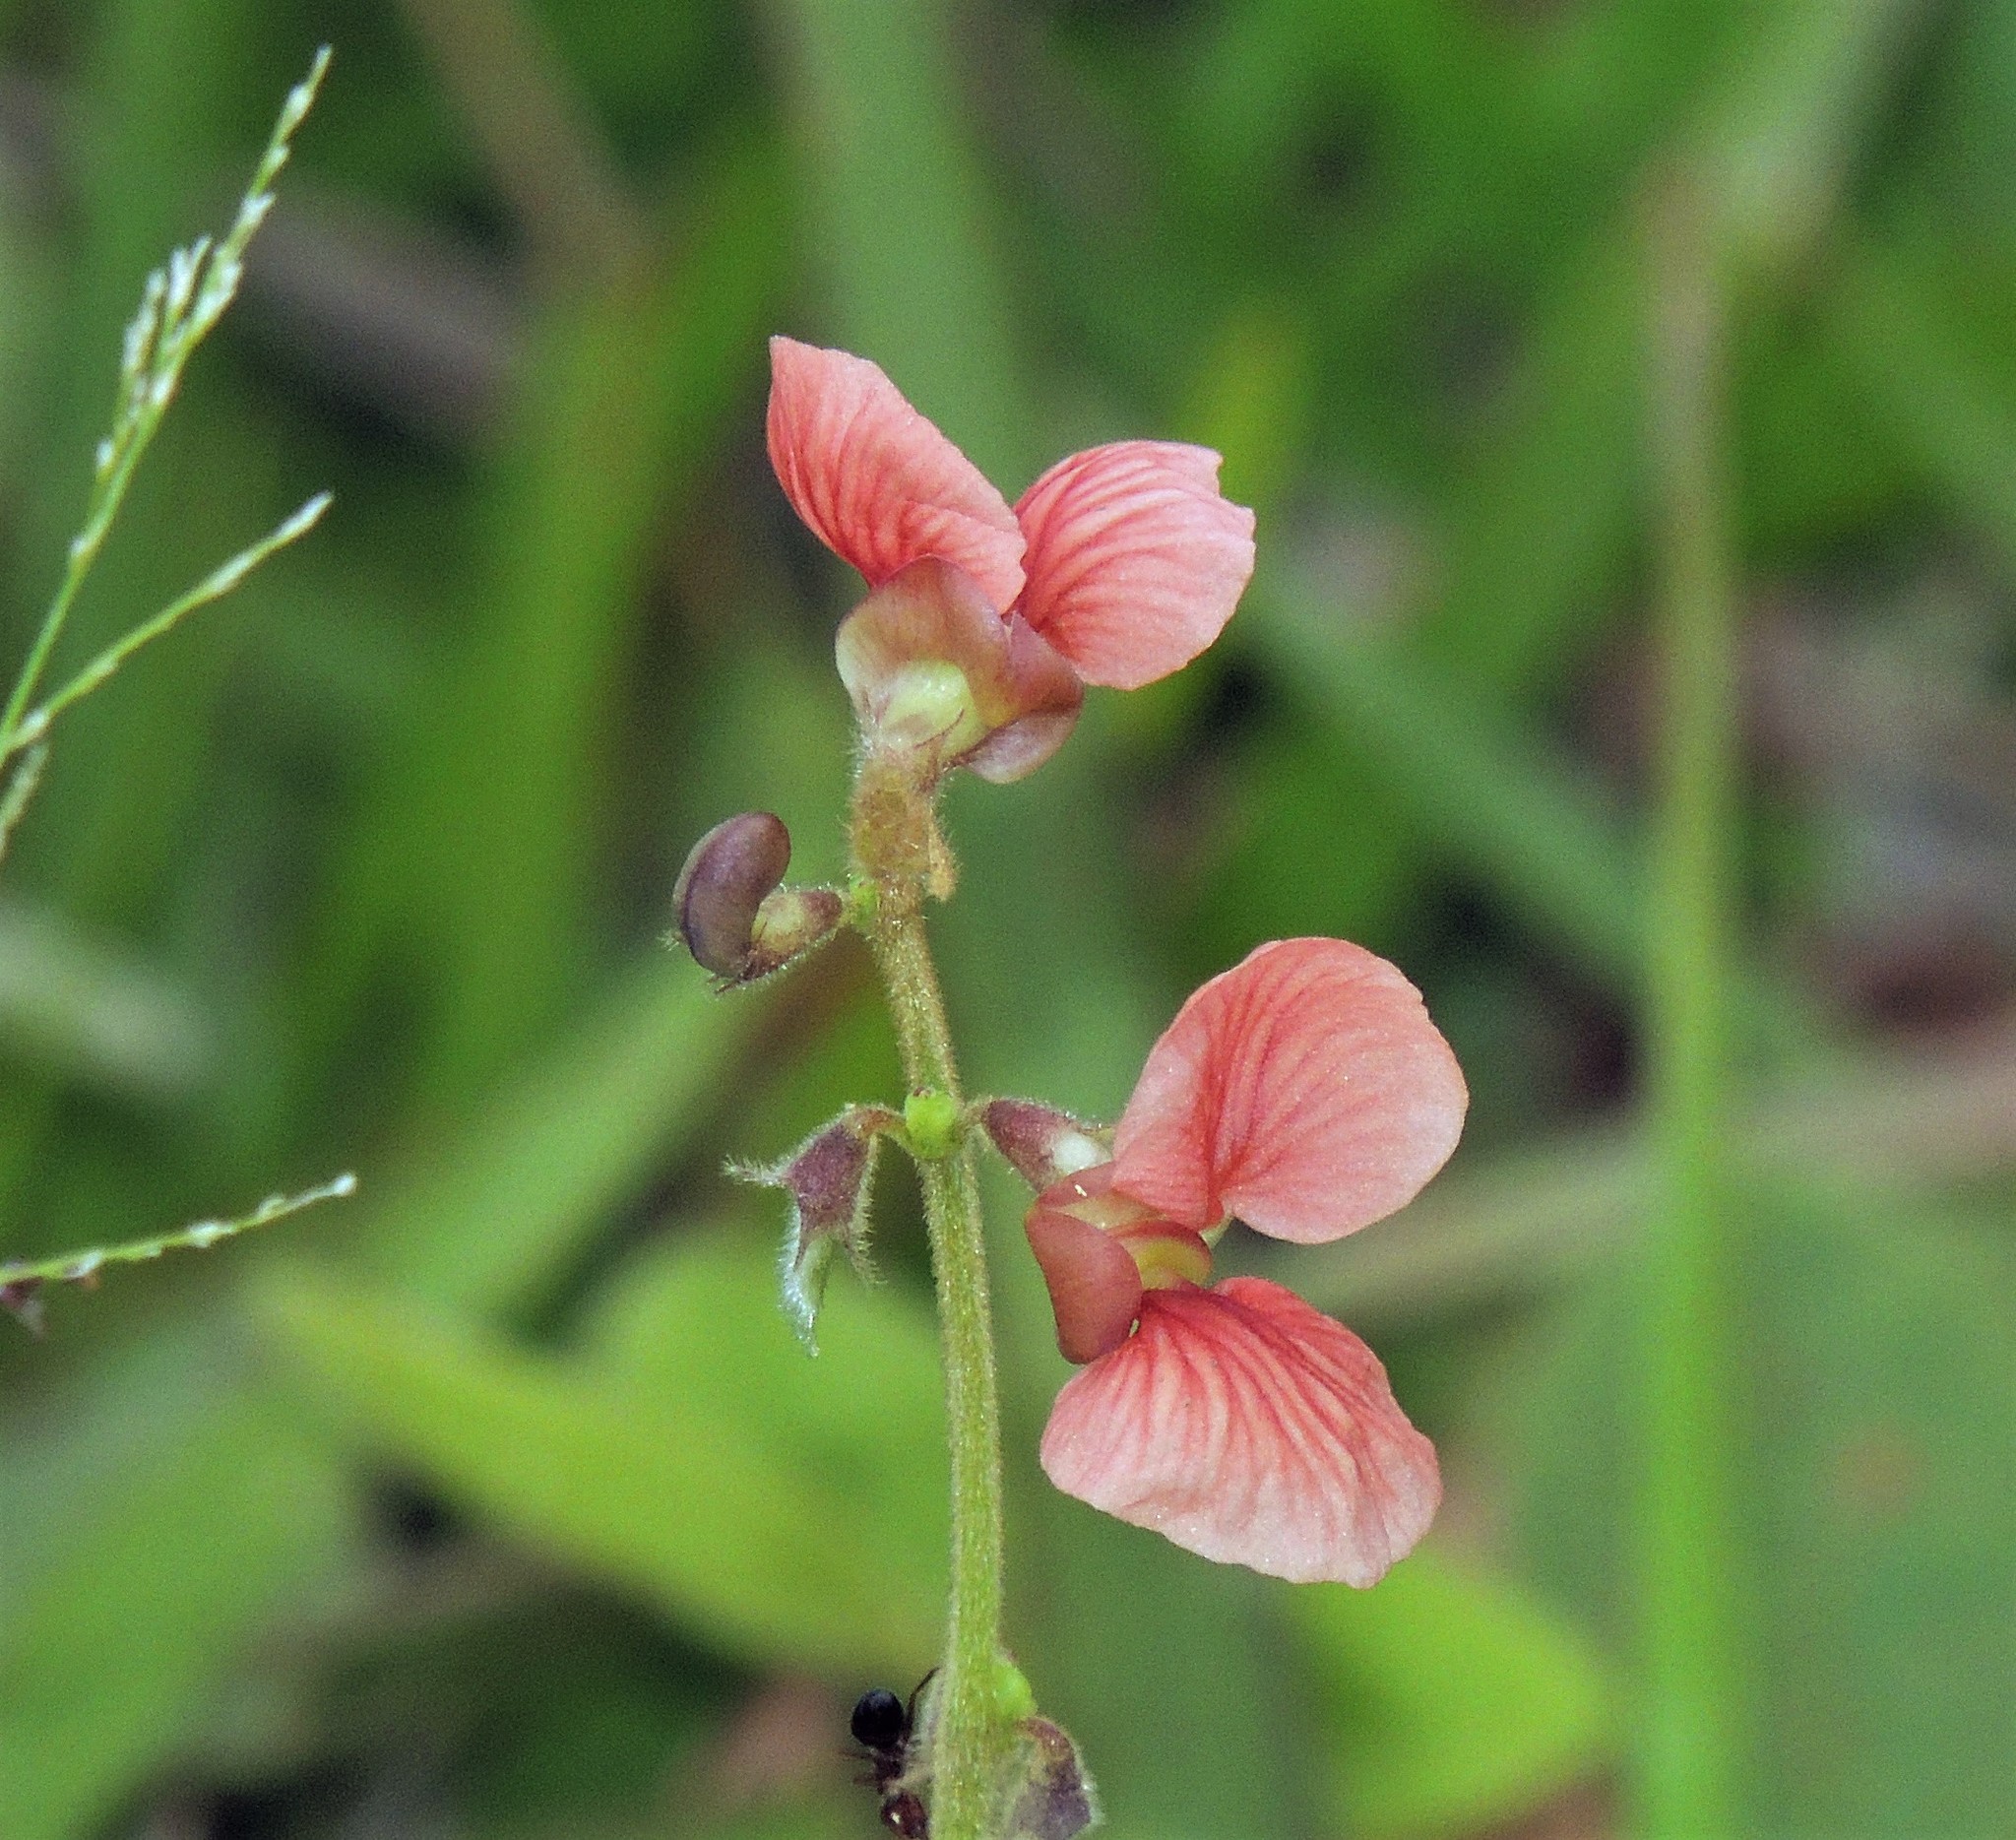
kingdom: Plantae
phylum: Tracheophyta
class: Magnoliopsida
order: Fabales
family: Fabaceae
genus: Macroptilium
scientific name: Macroptilium arenarium
